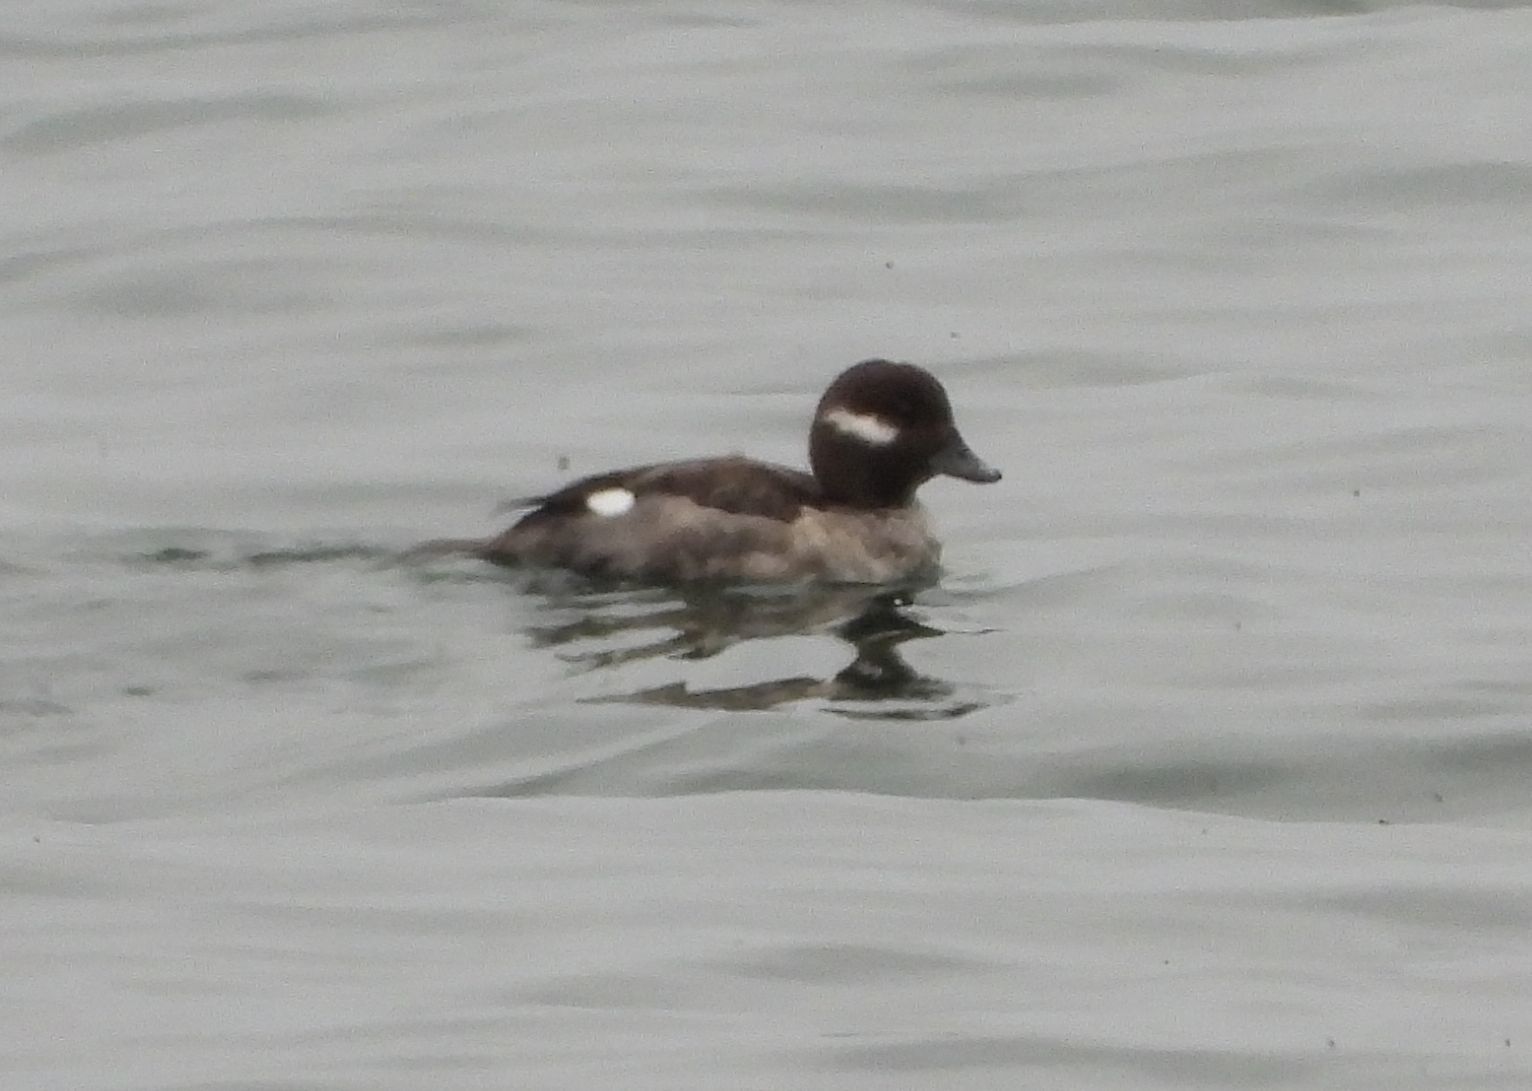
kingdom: Animalia
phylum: Chordata
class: Aves
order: Anseriformes
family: Anatidae
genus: Bucephala
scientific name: Bucephala albeola
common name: Bufflehead
